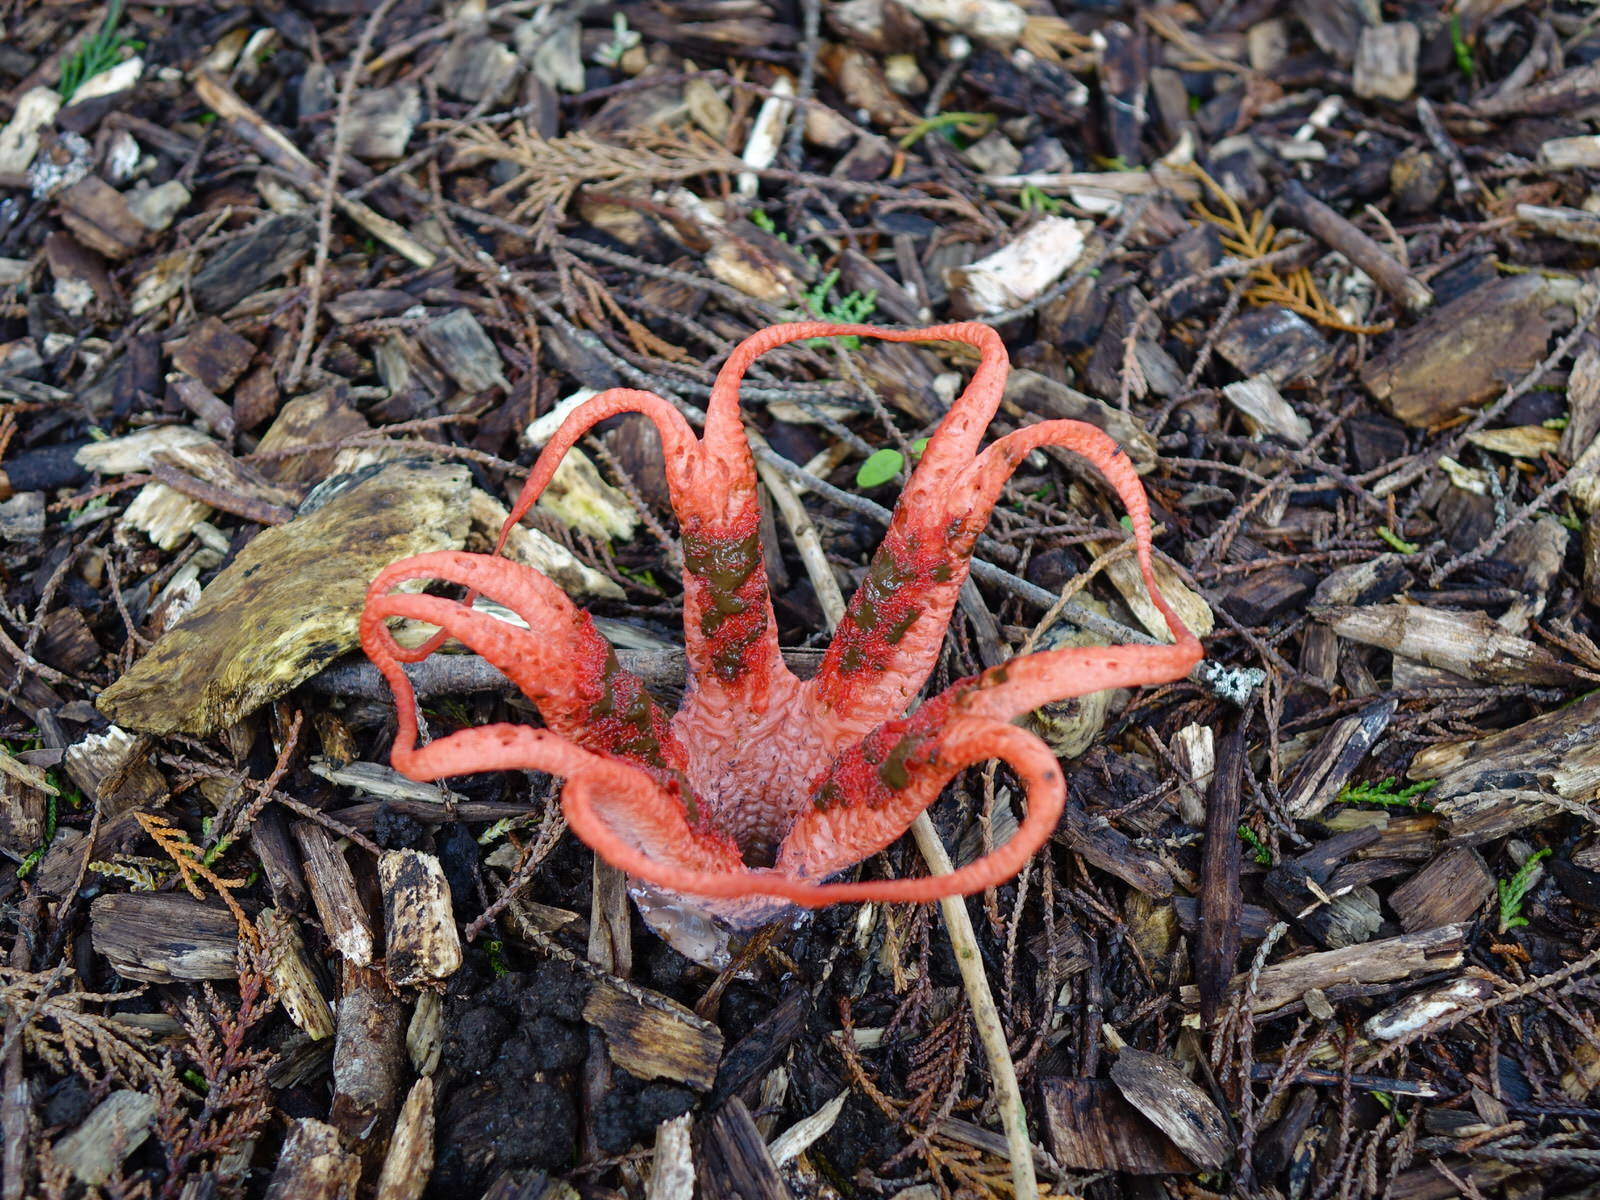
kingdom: Fungi
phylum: Basidiomycota
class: Agaricomycetes
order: Phallales
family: Phallaceae
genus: Clathrus
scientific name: Clathrus archeri
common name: Devil's fingers
